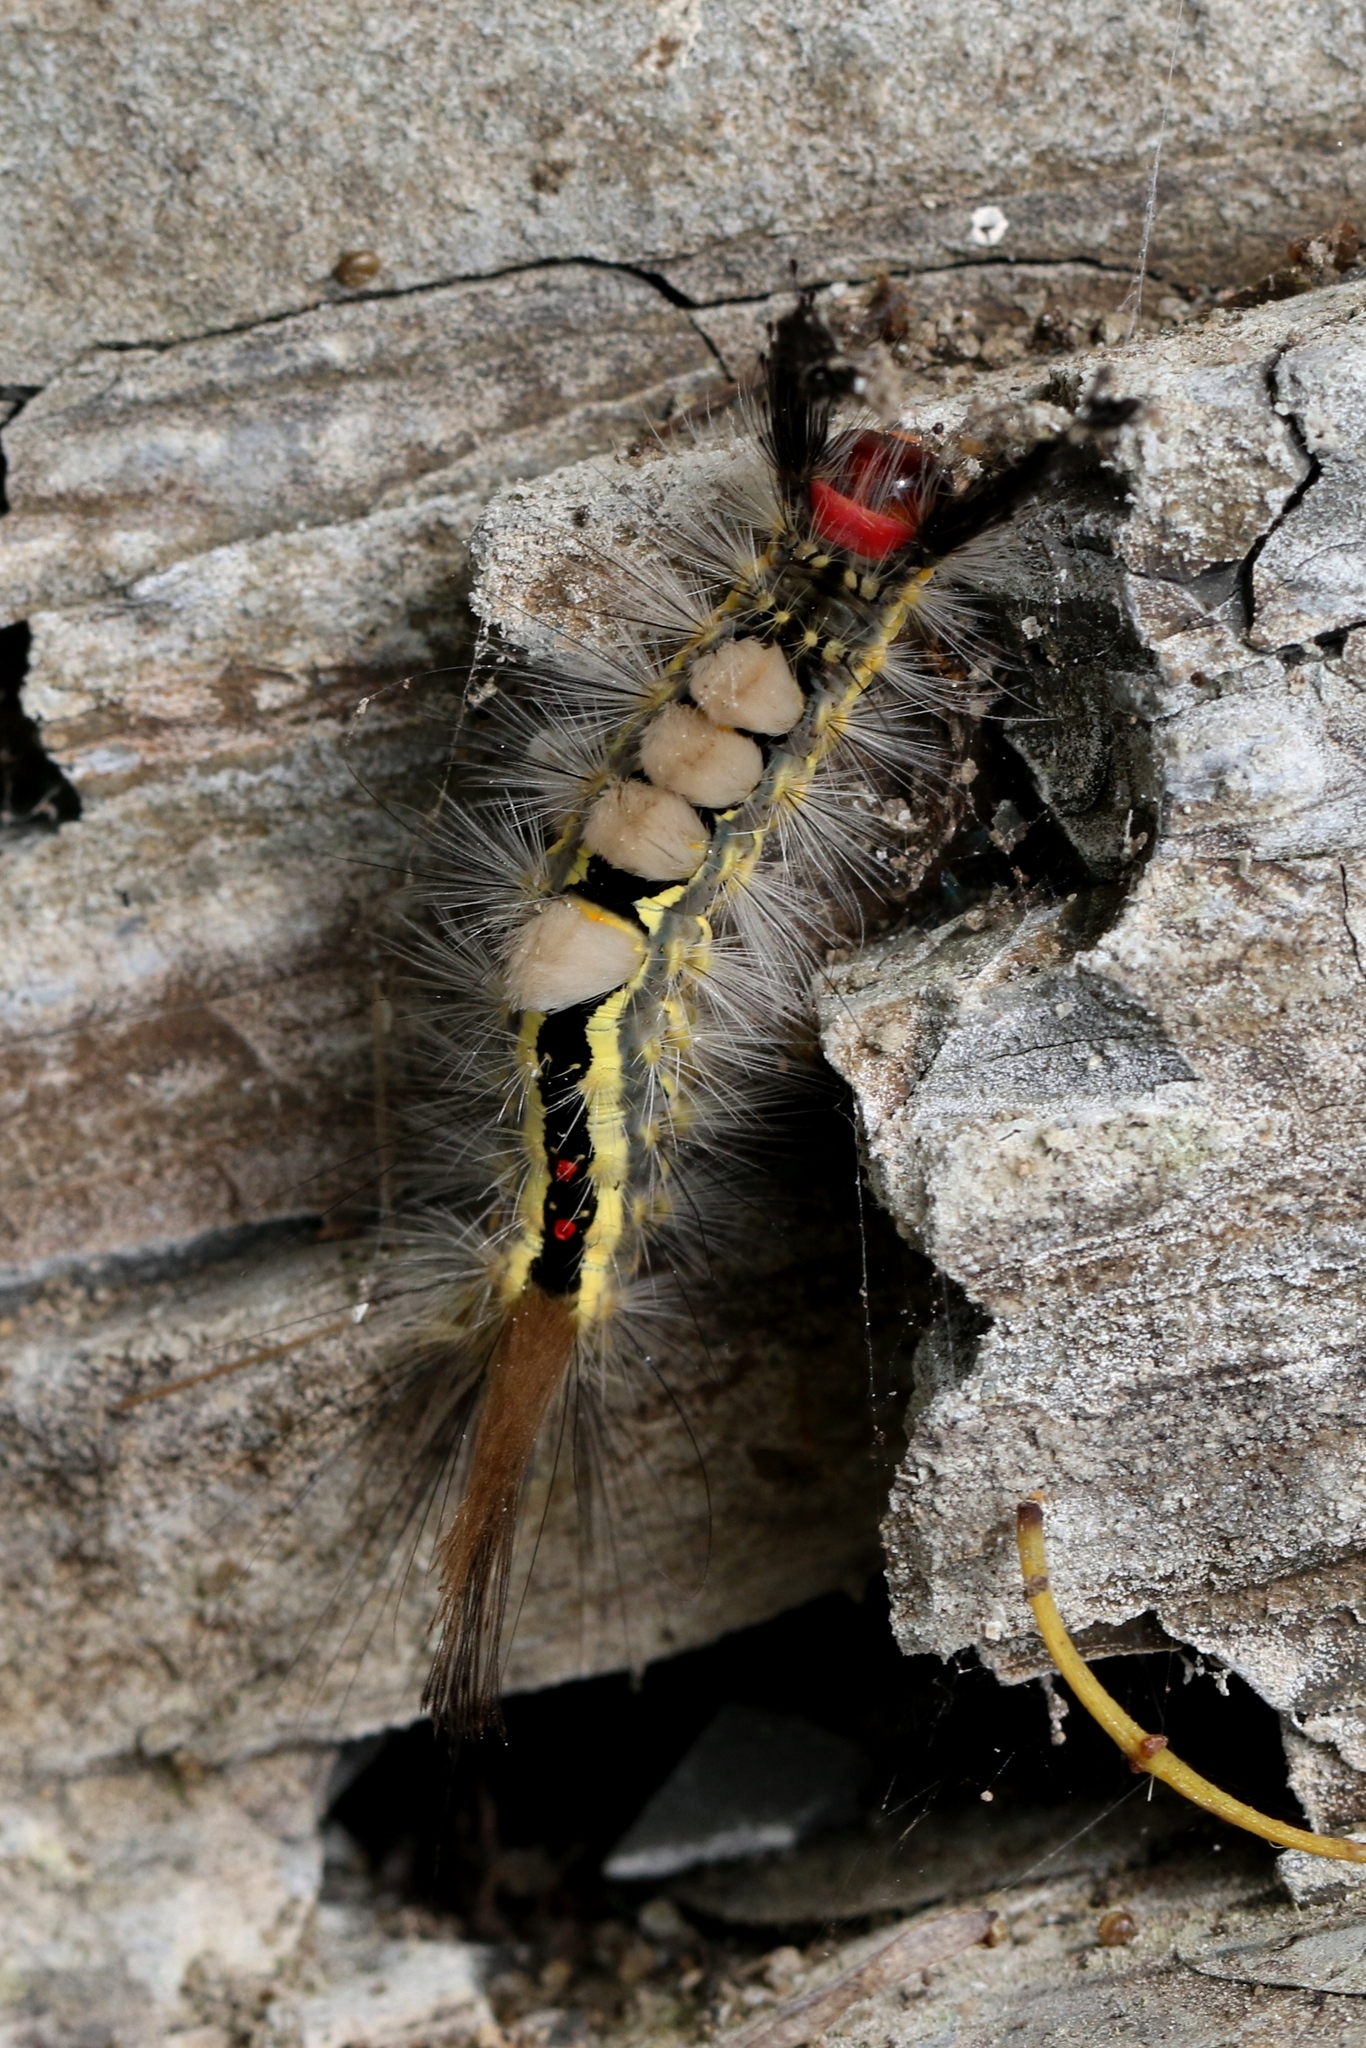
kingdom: Animalia
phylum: Arthropoda
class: Insecta
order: Lepidoptera
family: Erebidae
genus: Orgyia
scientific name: Orgyia leucostigma
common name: White-marked tussock moth
